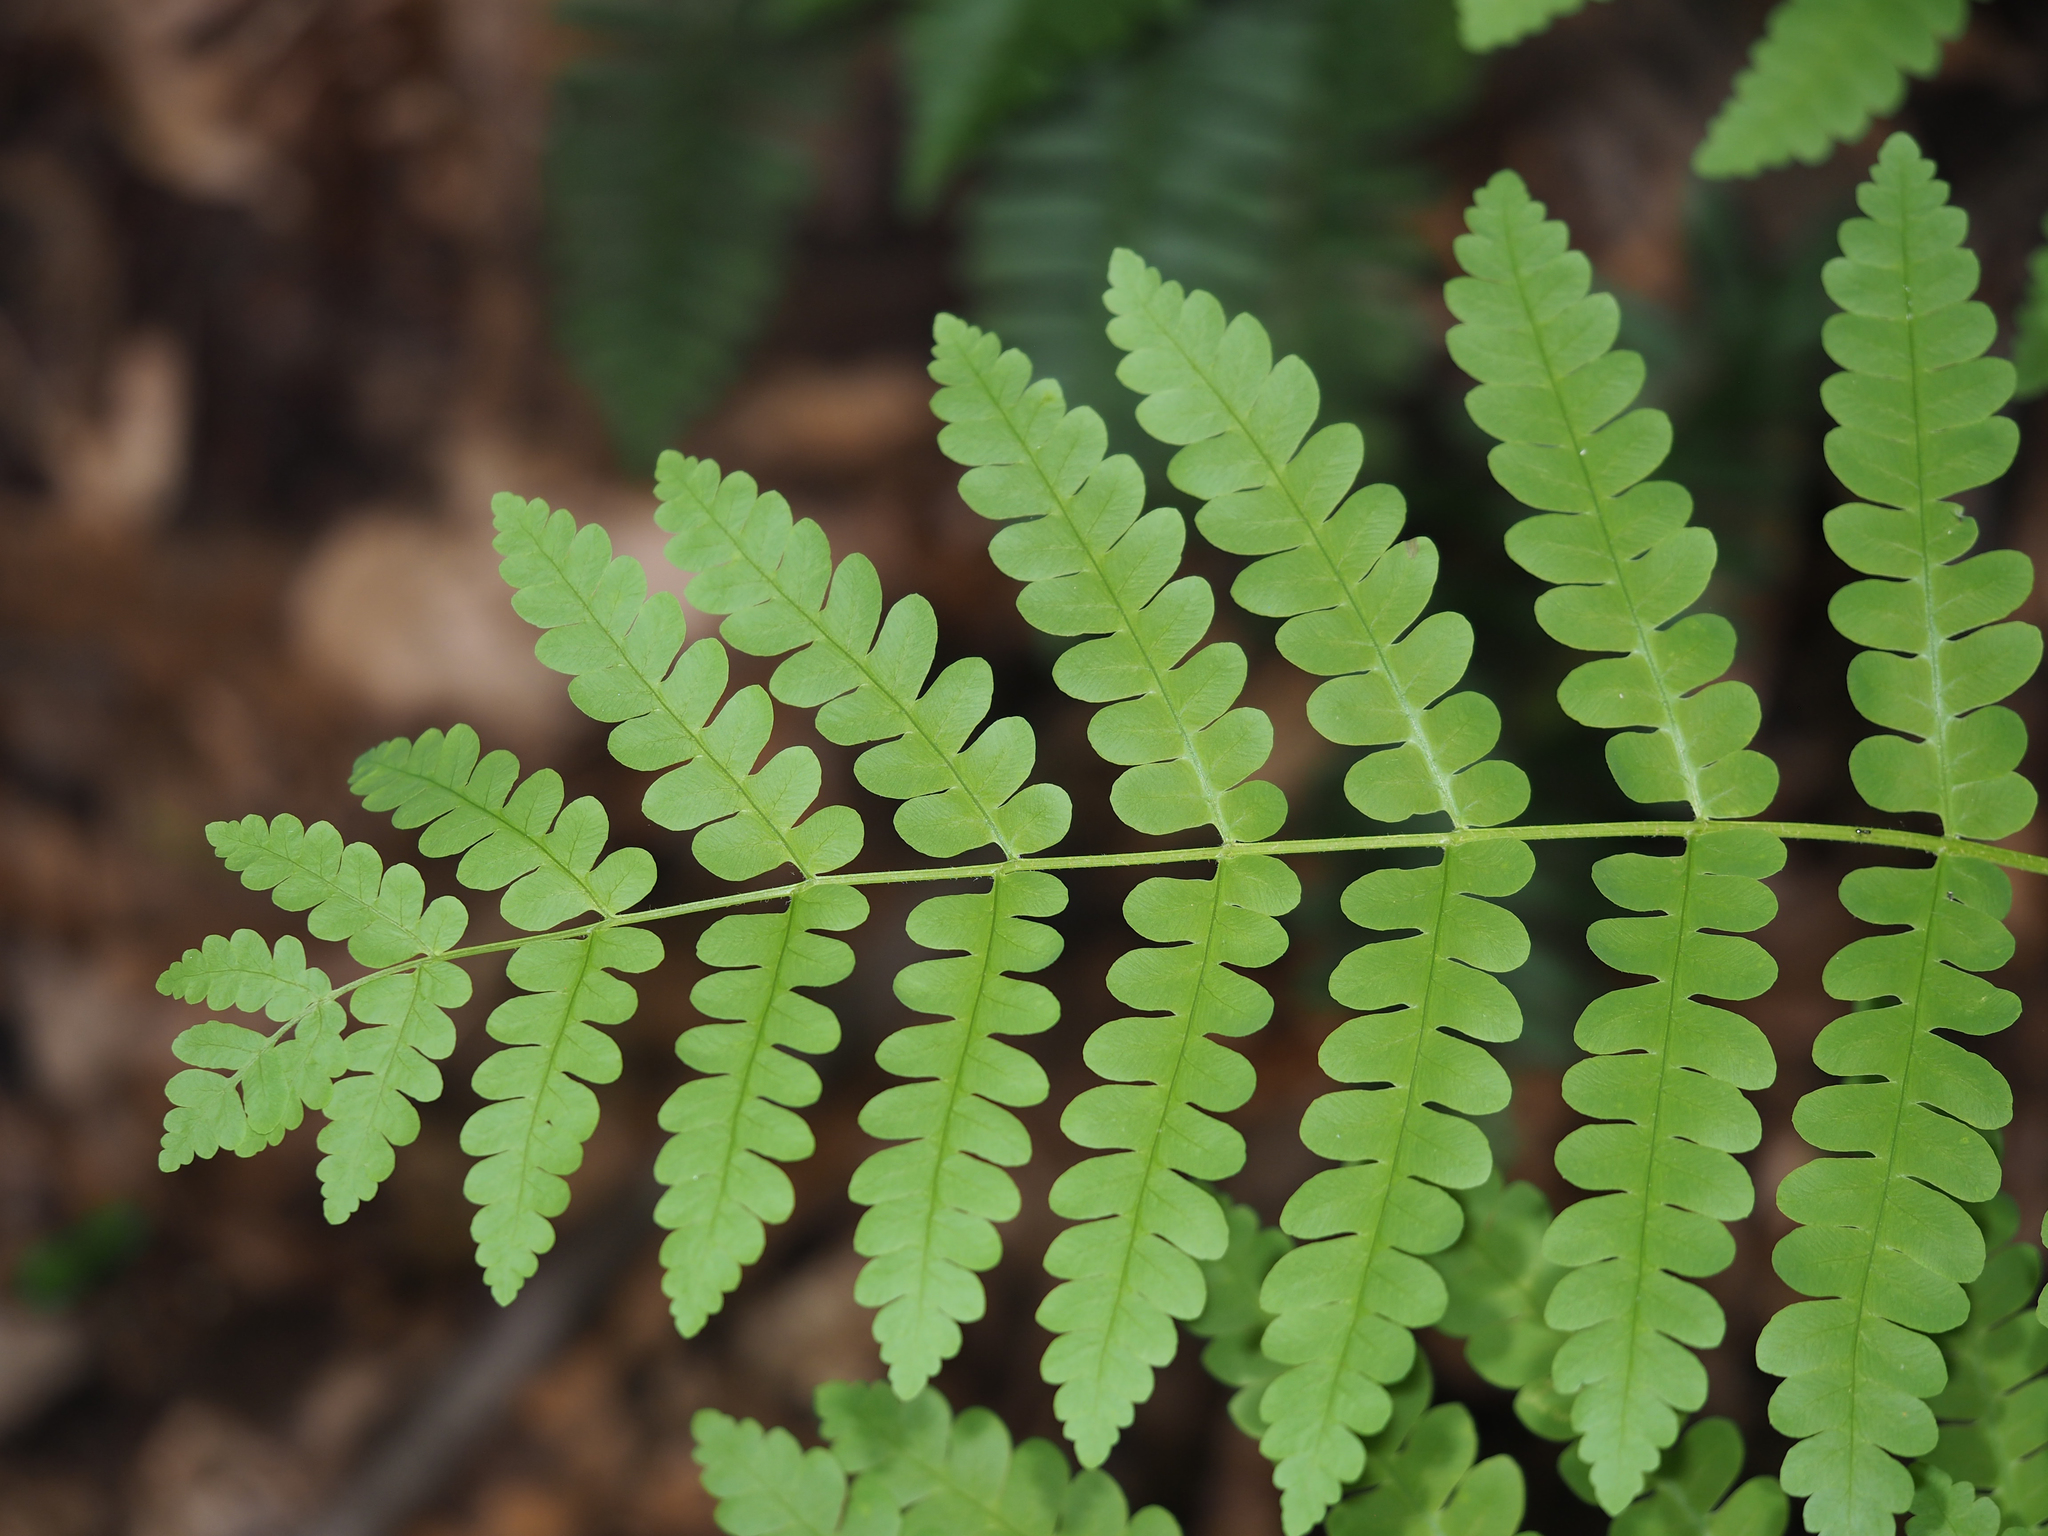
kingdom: Plantae
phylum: Tracheophyta
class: Polypodiopsida
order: Osmundales
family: Osmundaceae
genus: Claytosmunda
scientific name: Claytosmunda claytoniana
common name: Clayton's fern
